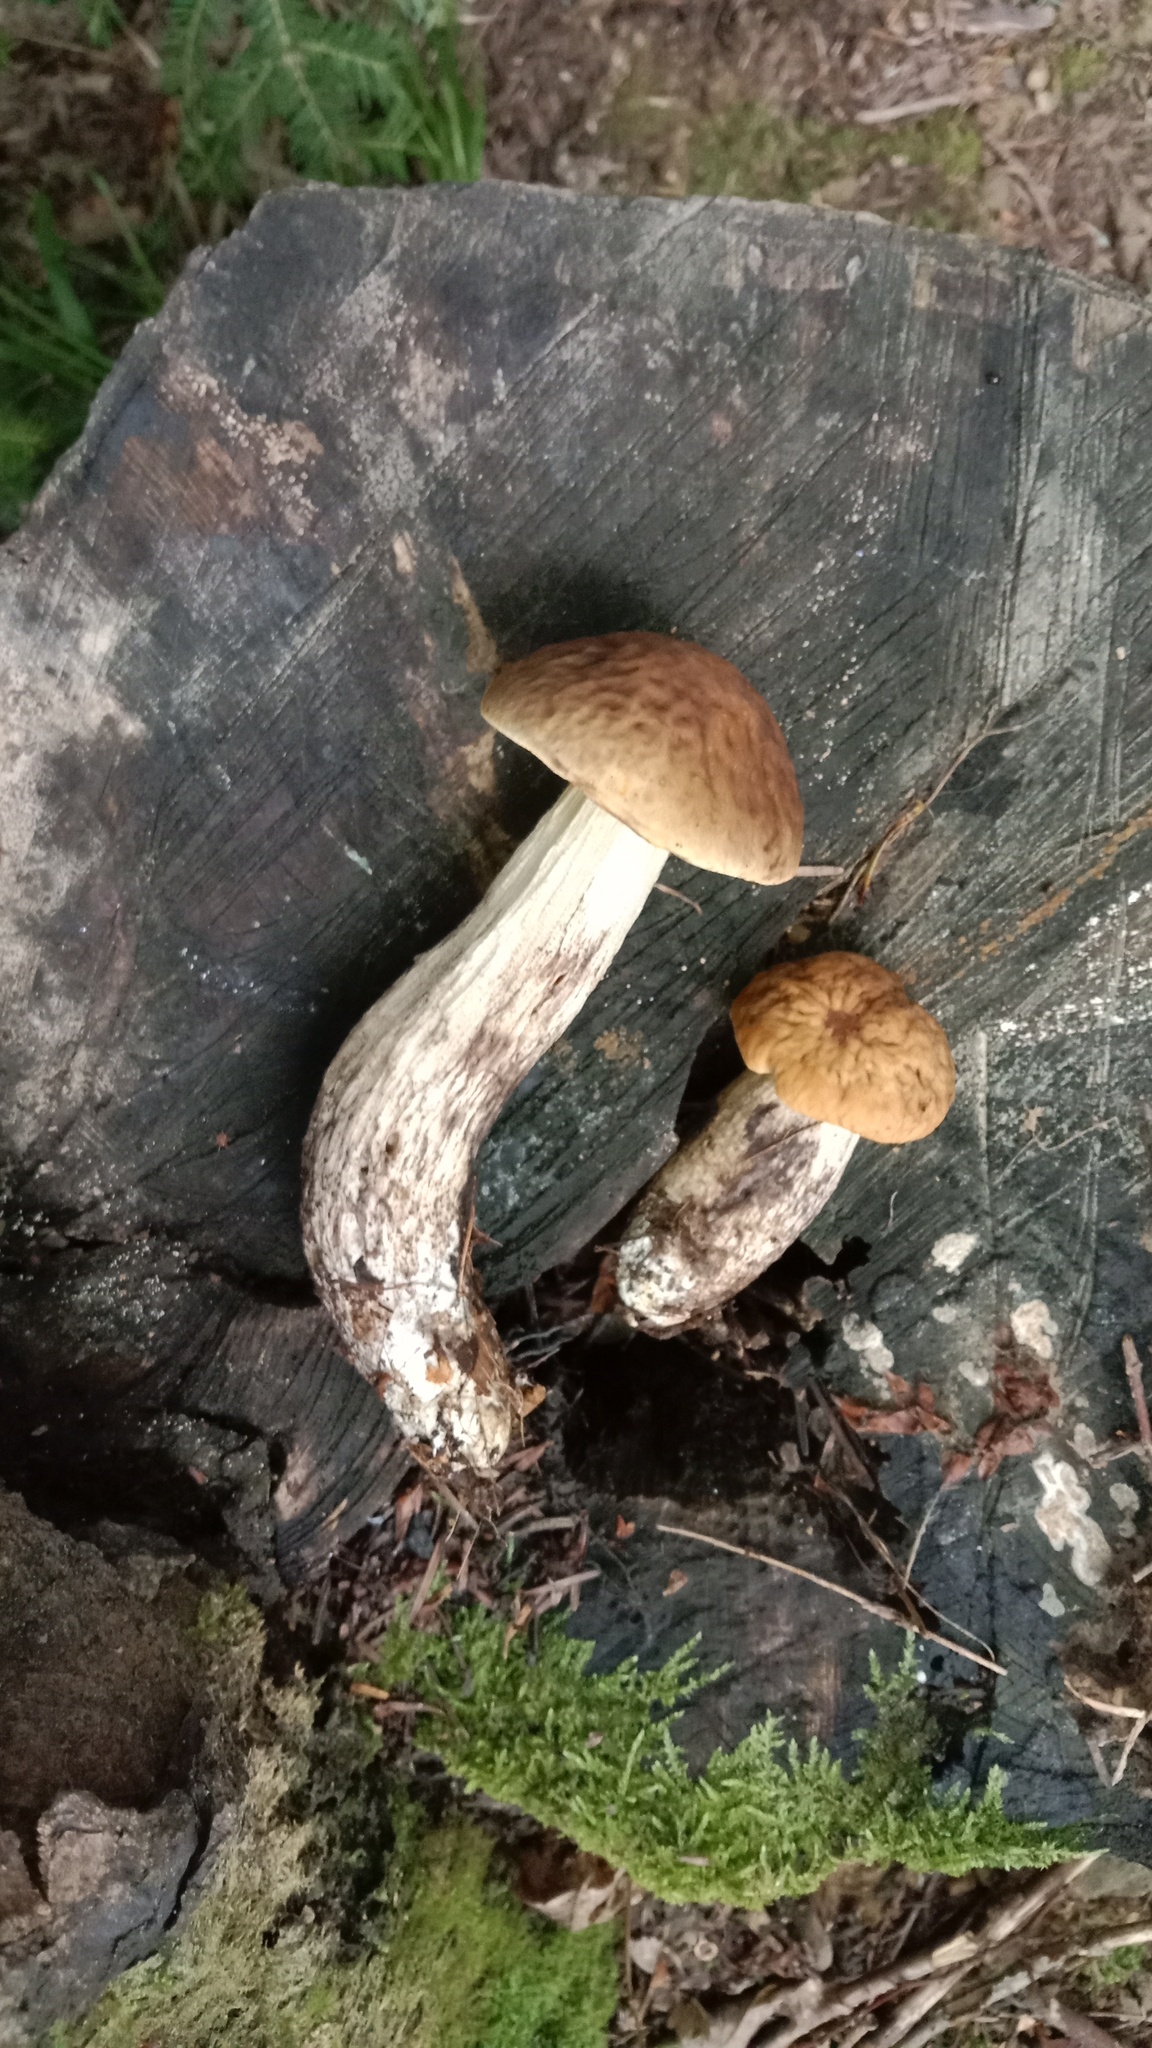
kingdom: Fungi
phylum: Basidiomycota
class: Agaricomycetes
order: Boletales
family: Boletaceae
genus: Leccinellum
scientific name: Leccinellum pseudoscabrum
